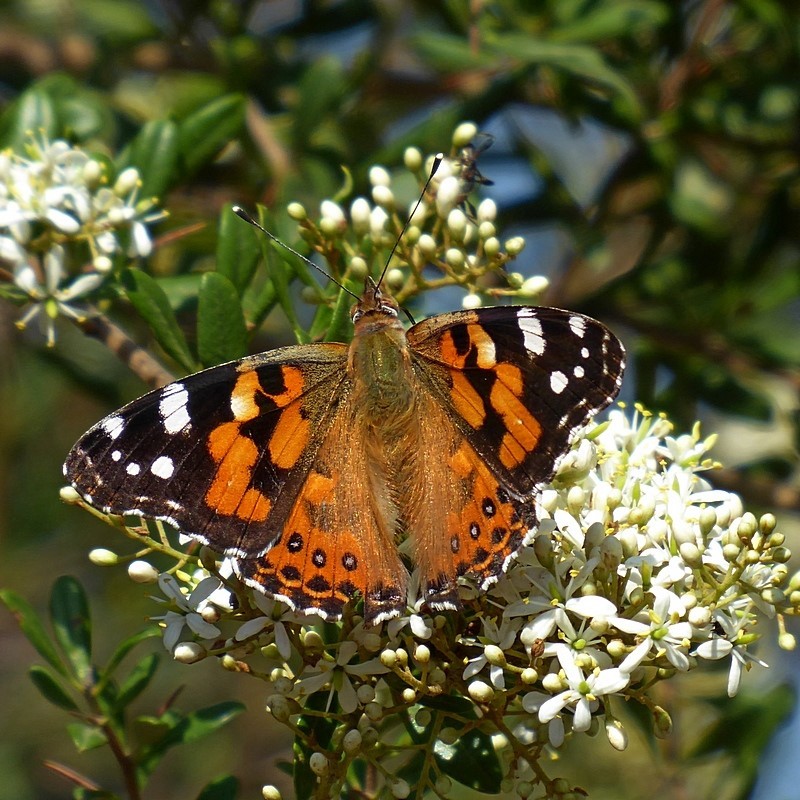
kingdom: Animalia
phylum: Arthropoda
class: Insecta
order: Lepidoptera
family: Nymphalidae
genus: Vanessa
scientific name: Vanessa kershawi
